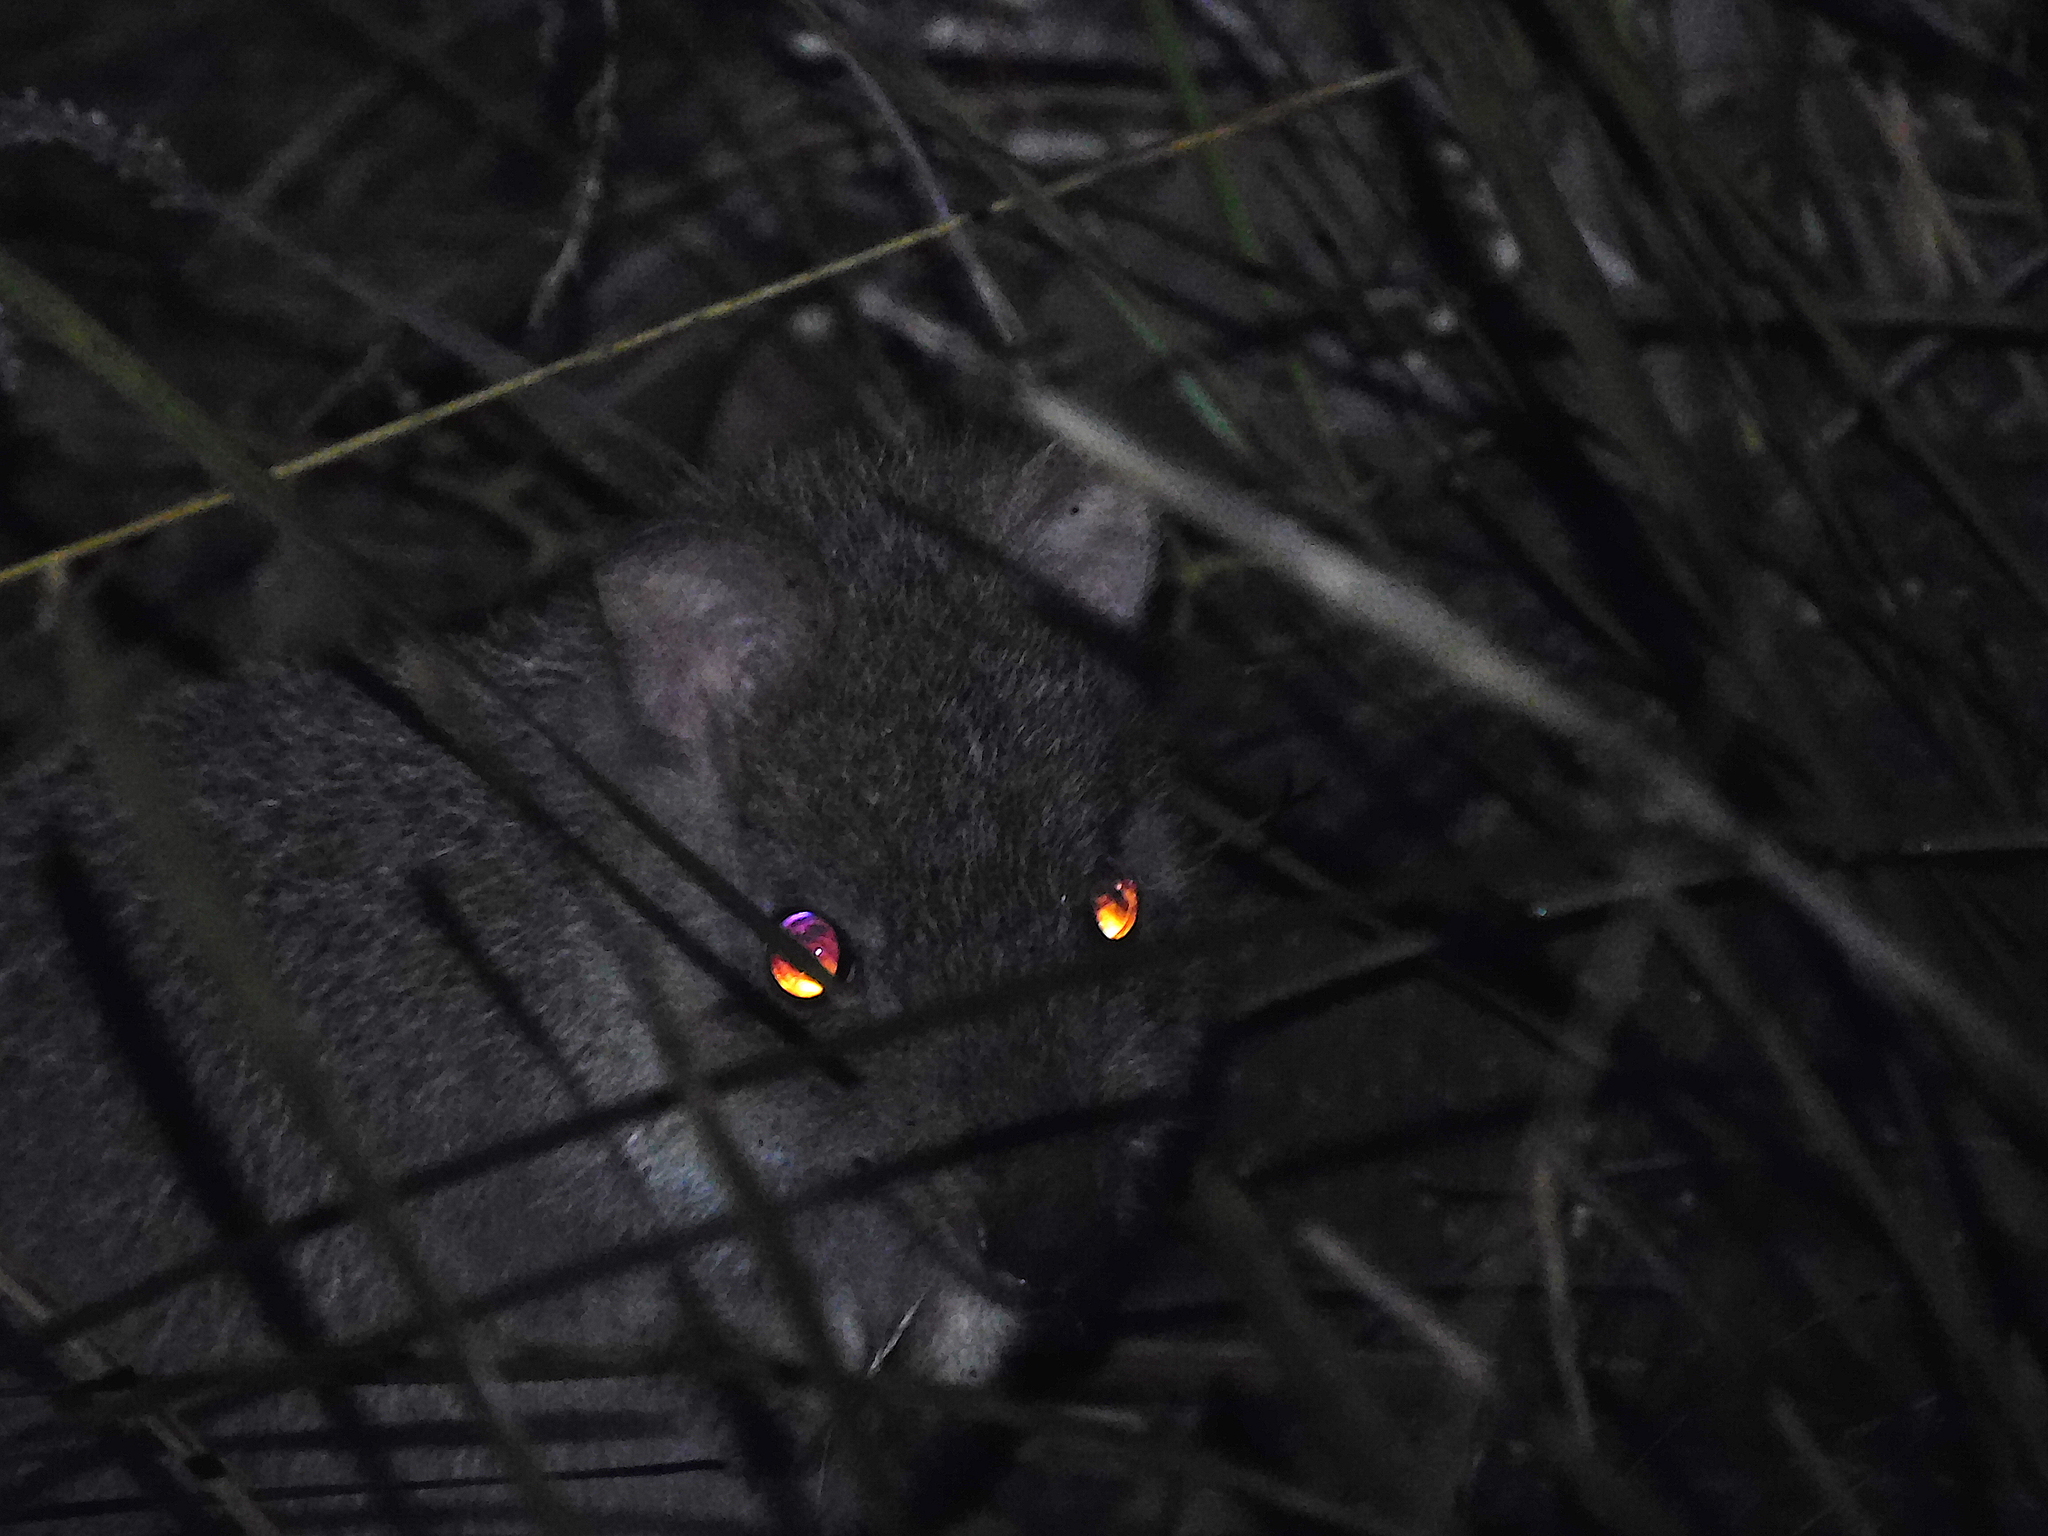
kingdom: Animalia
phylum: Chordata
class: Mammalia
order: Diprotodontia
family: Potoroidae
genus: Bettongia
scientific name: Bettongia gaimardi
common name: Eastern bettong
